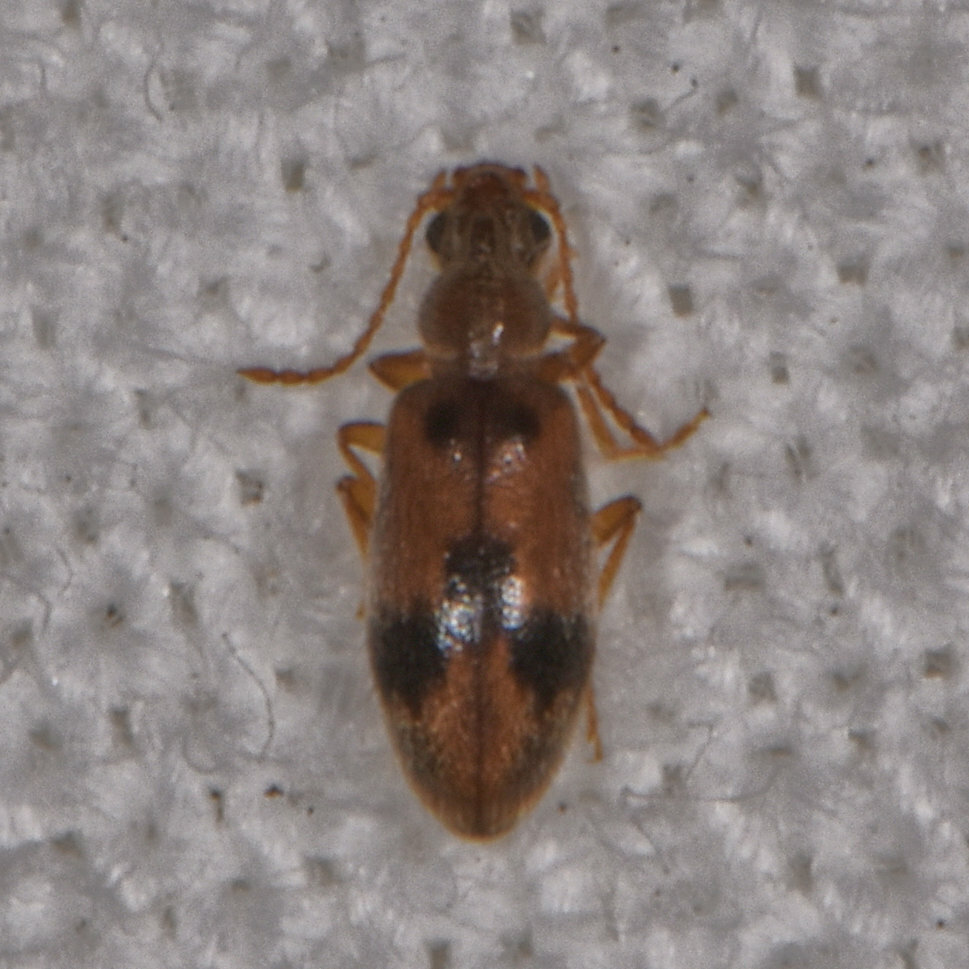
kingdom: Animalia
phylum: Arthropoda
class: Insecta
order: Coleoptera
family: Anthicidae
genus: Notoxus
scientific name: Notoxus desertus
